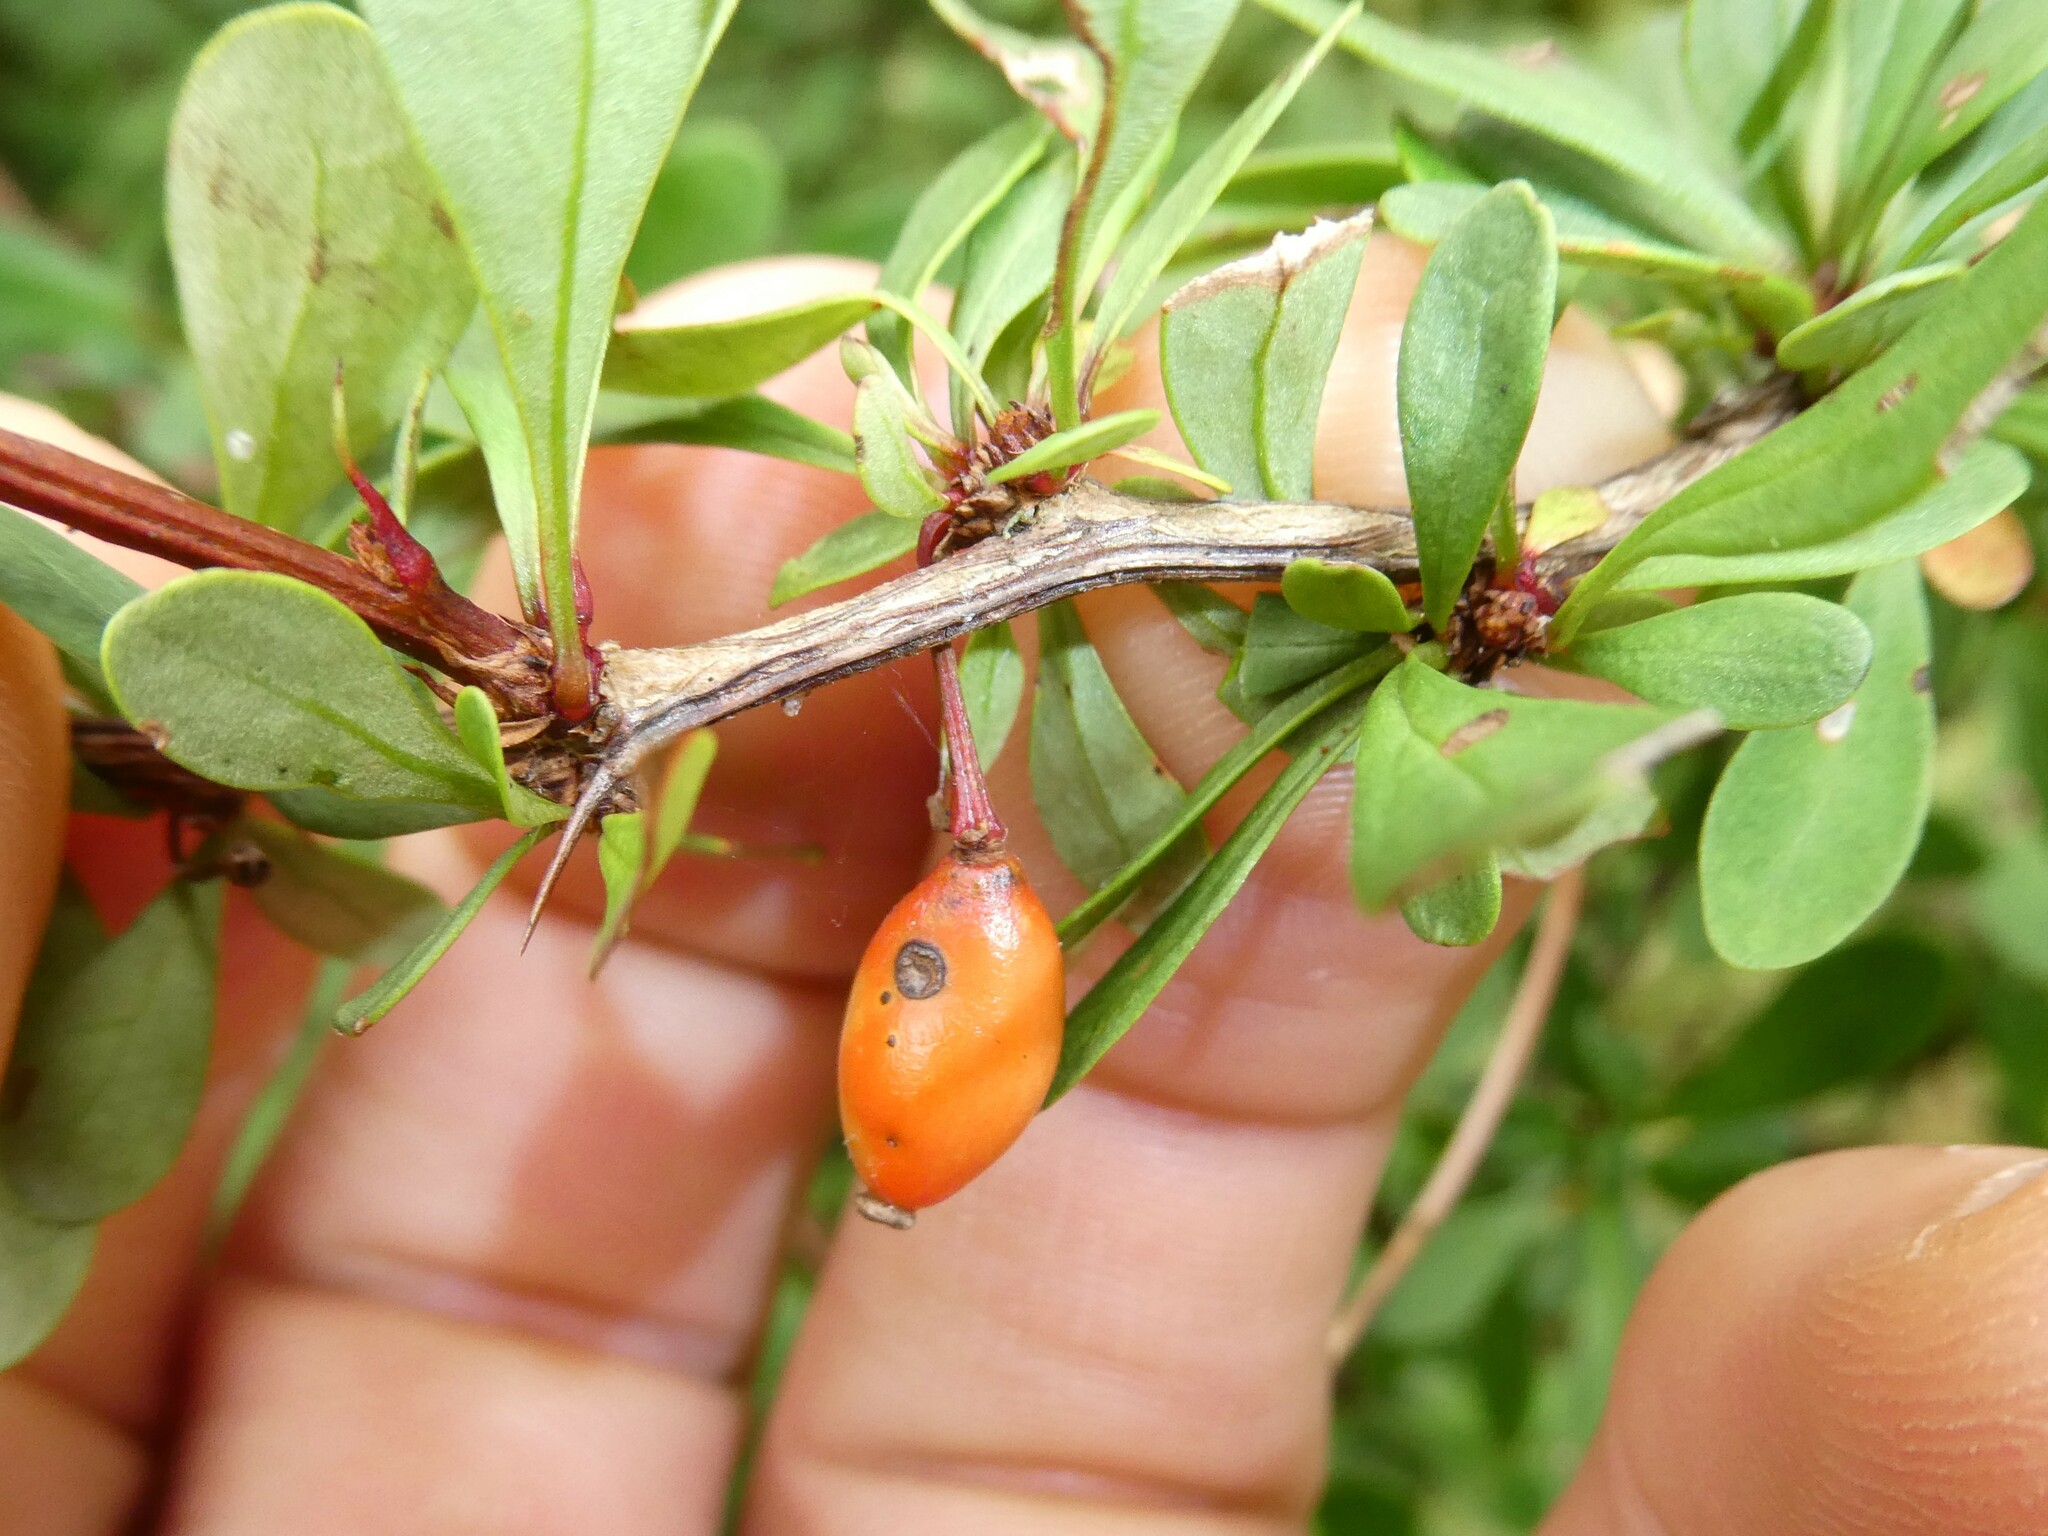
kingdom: Plantae
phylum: Tracheophyta
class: Magnoliopsida
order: Ranunculales
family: Berberidaceae
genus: Berberis
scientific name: Berberis thunbergii
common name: Japanese barberry
